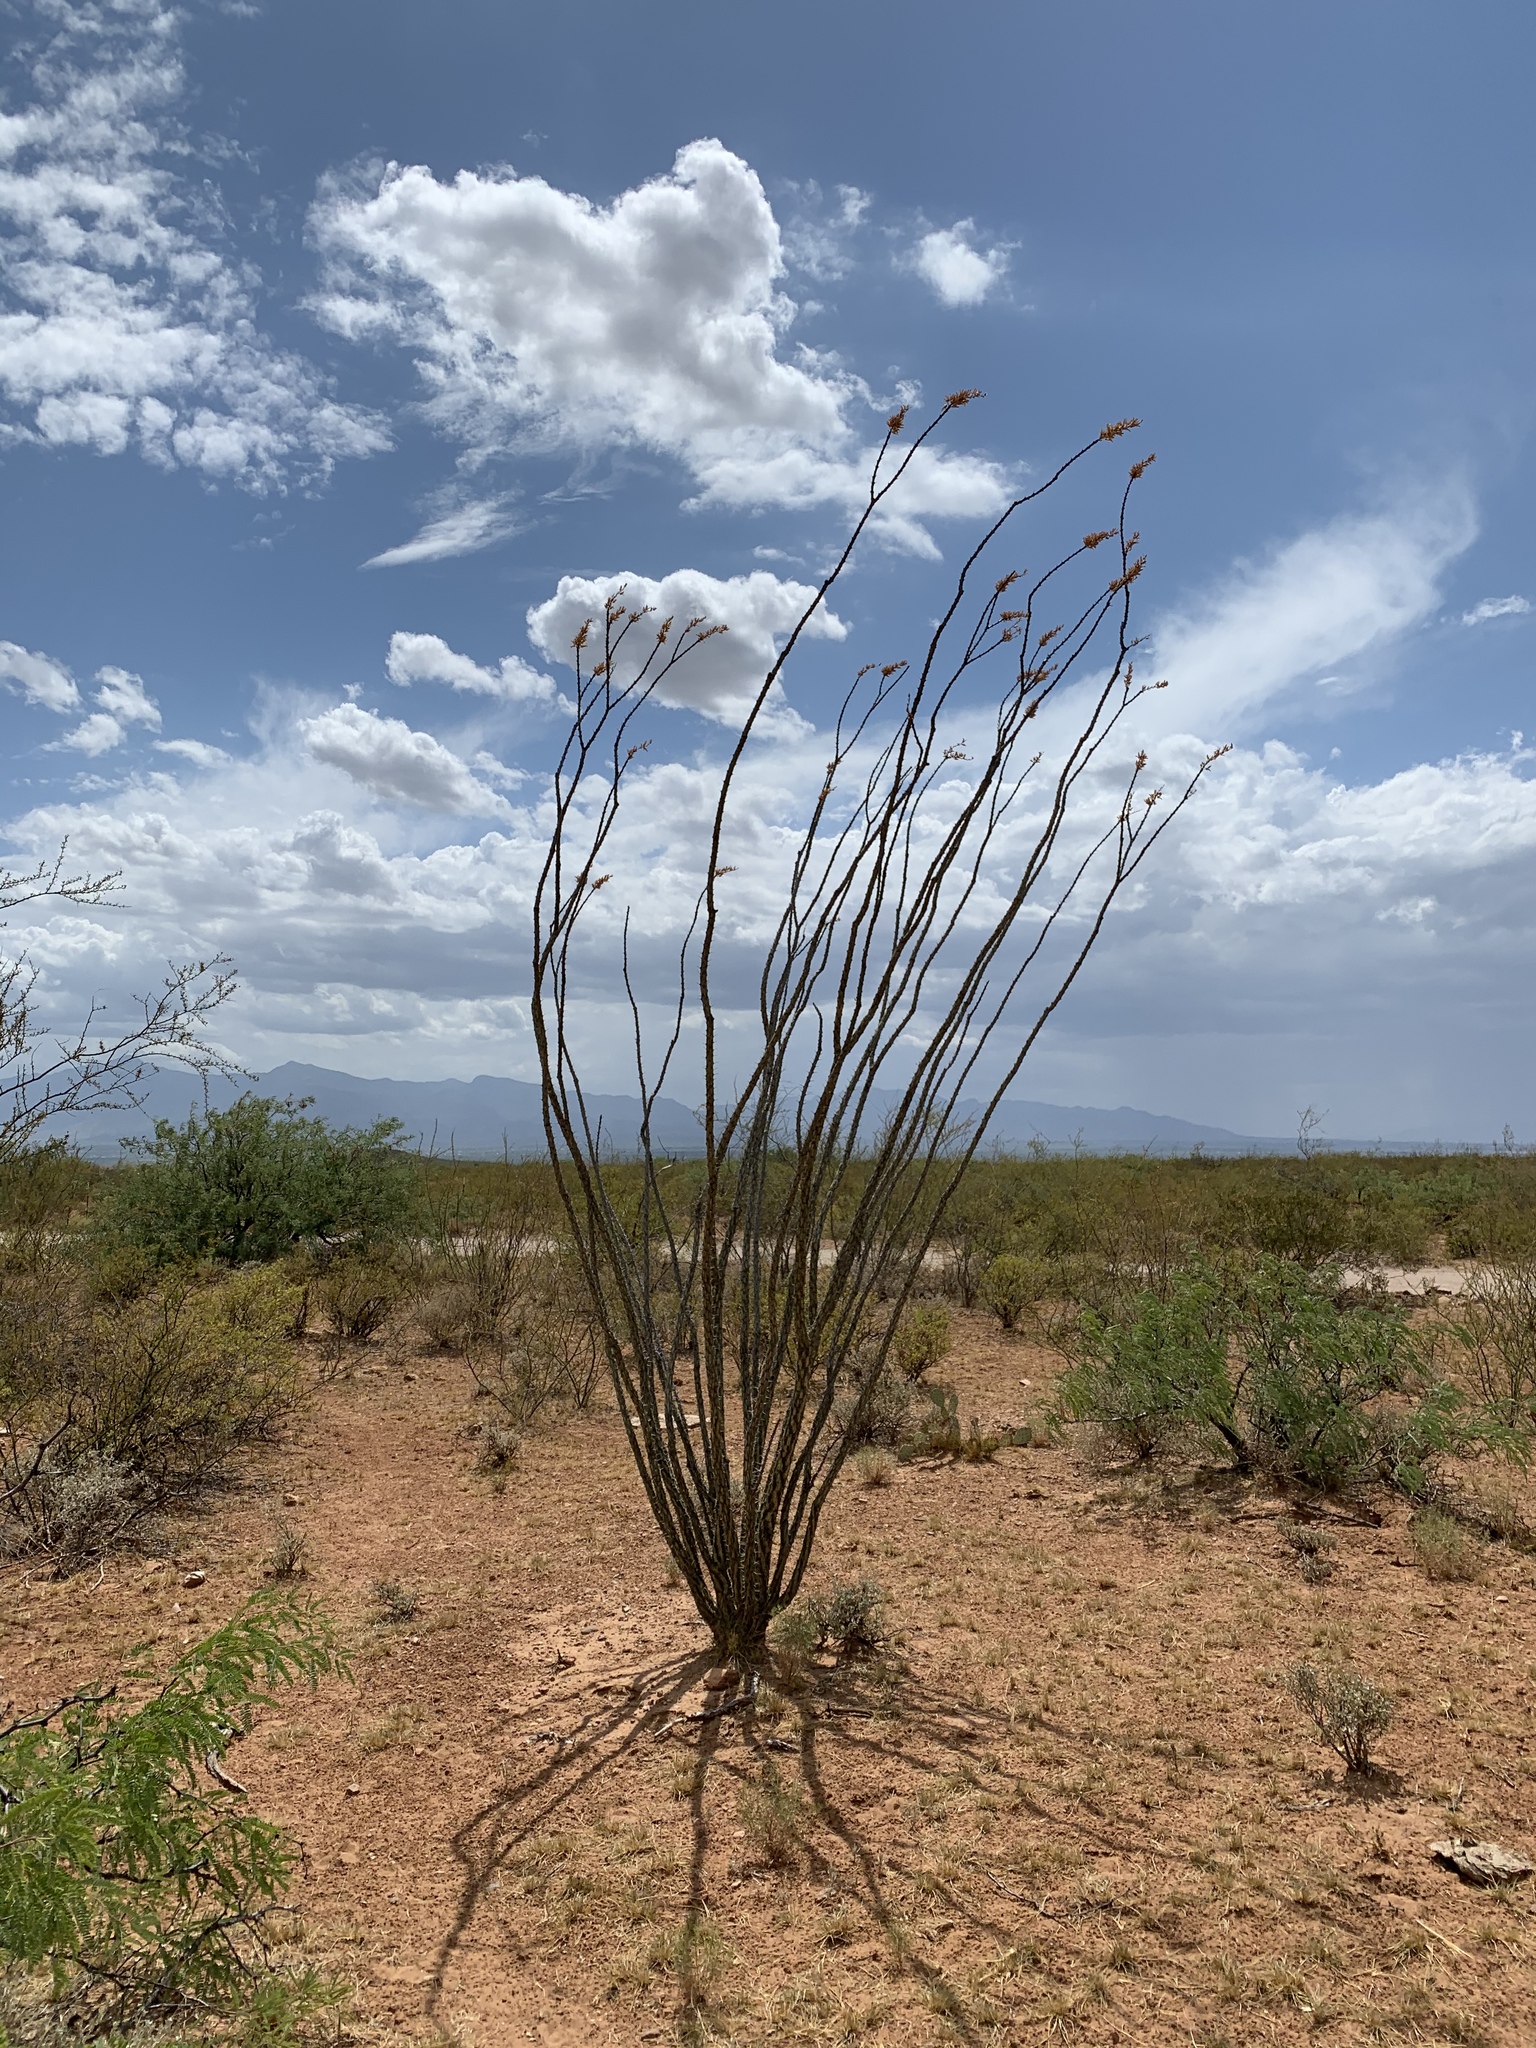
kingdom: Plantae
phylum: Tracheophyta
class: Magnoliopsida
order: Ericales
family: Fouquieriaceae
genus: Fouquieria
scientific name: Fouquieria splendens
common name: Vine-cactus
